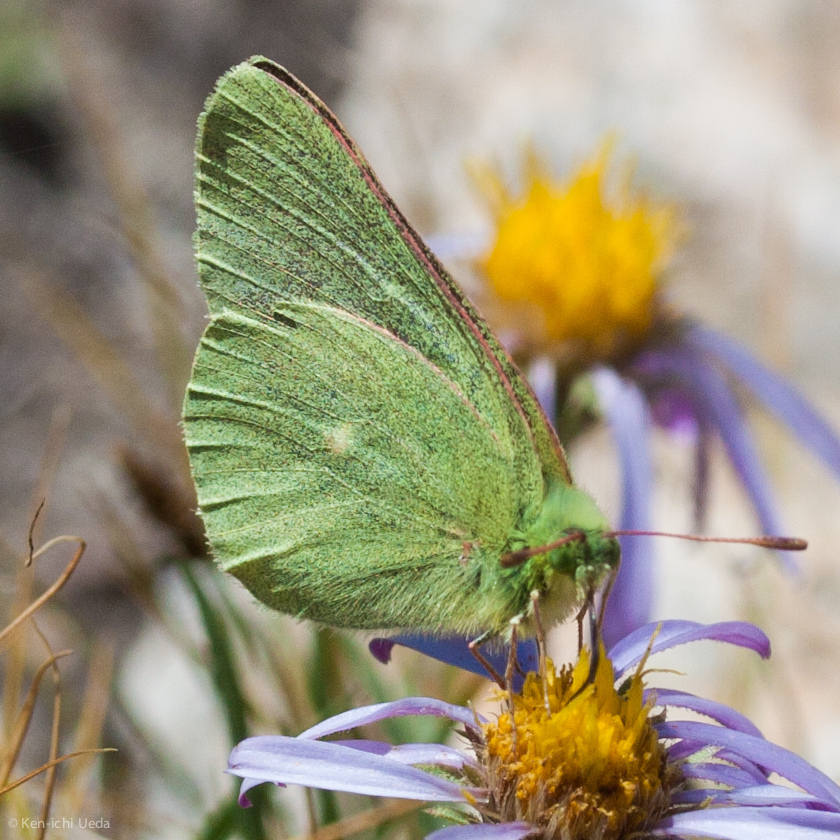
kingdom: Animalia
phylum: Arthropoda
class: Insecta
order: Lepidoptera
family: Pieridae
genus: Colias
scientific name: Colias behrii
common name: Behr's sulphur
